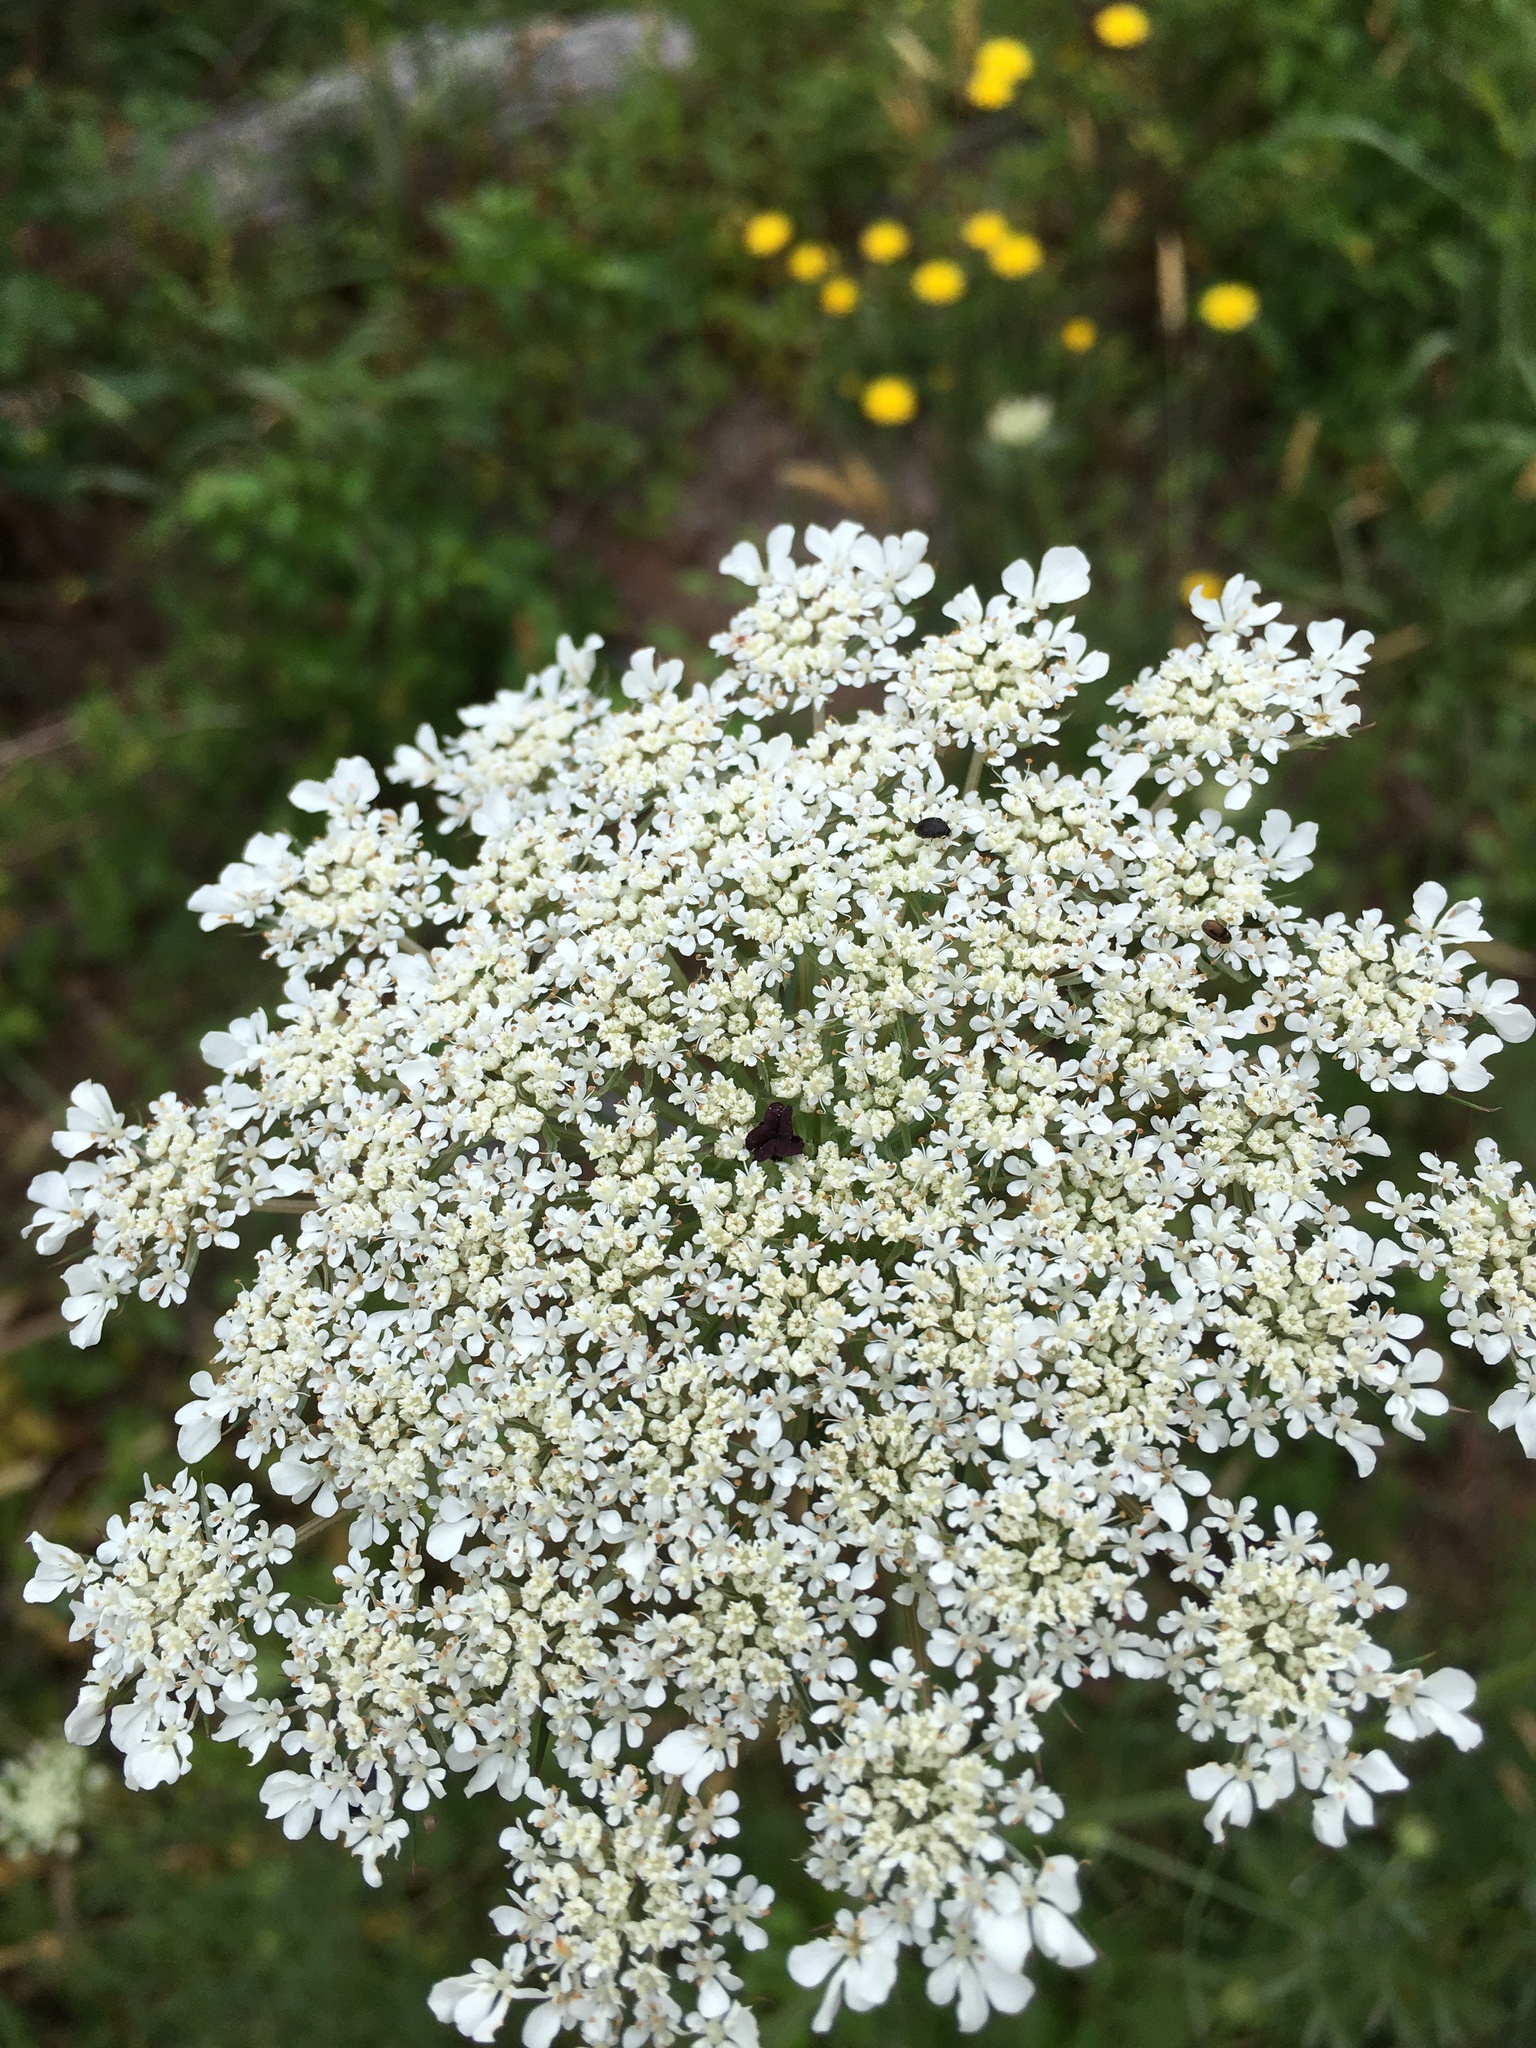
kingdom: Plantae
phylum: Tracheophyta
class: Magnoliopsida
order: Apiales
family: Apiaceae
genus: Daucus
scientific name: Daucus carota
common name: Wild carrot
